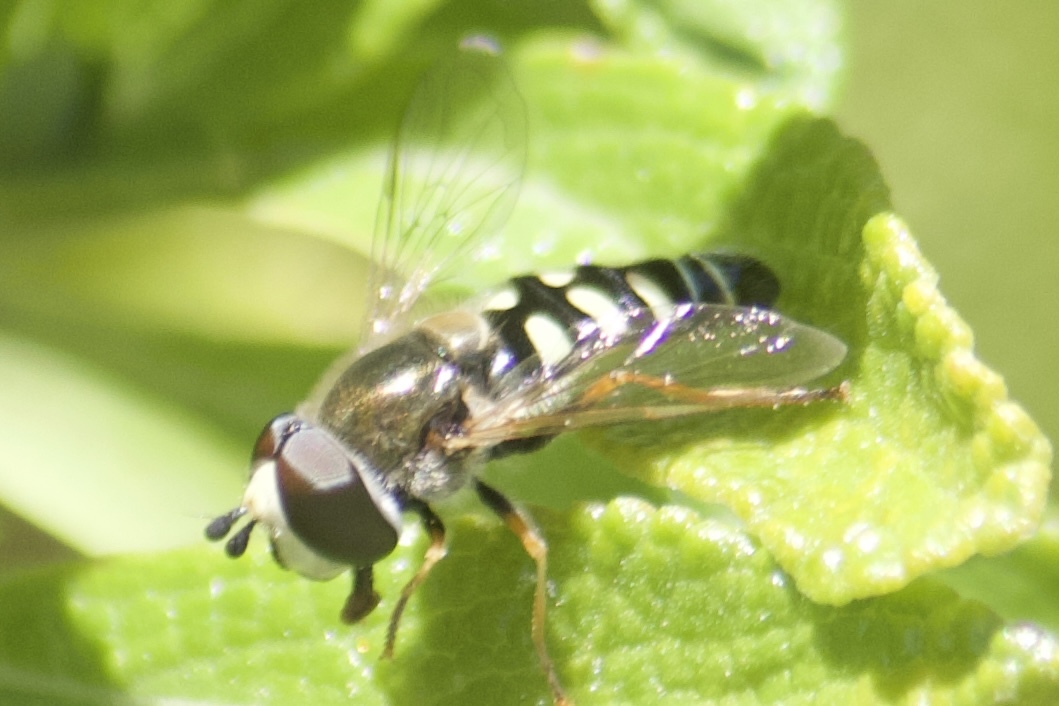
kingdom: Animalia
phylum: Arthropoda
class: Insecta
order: Diptera
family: Syrphidae
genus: Eupeodes
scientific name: Eupeodes volucris
